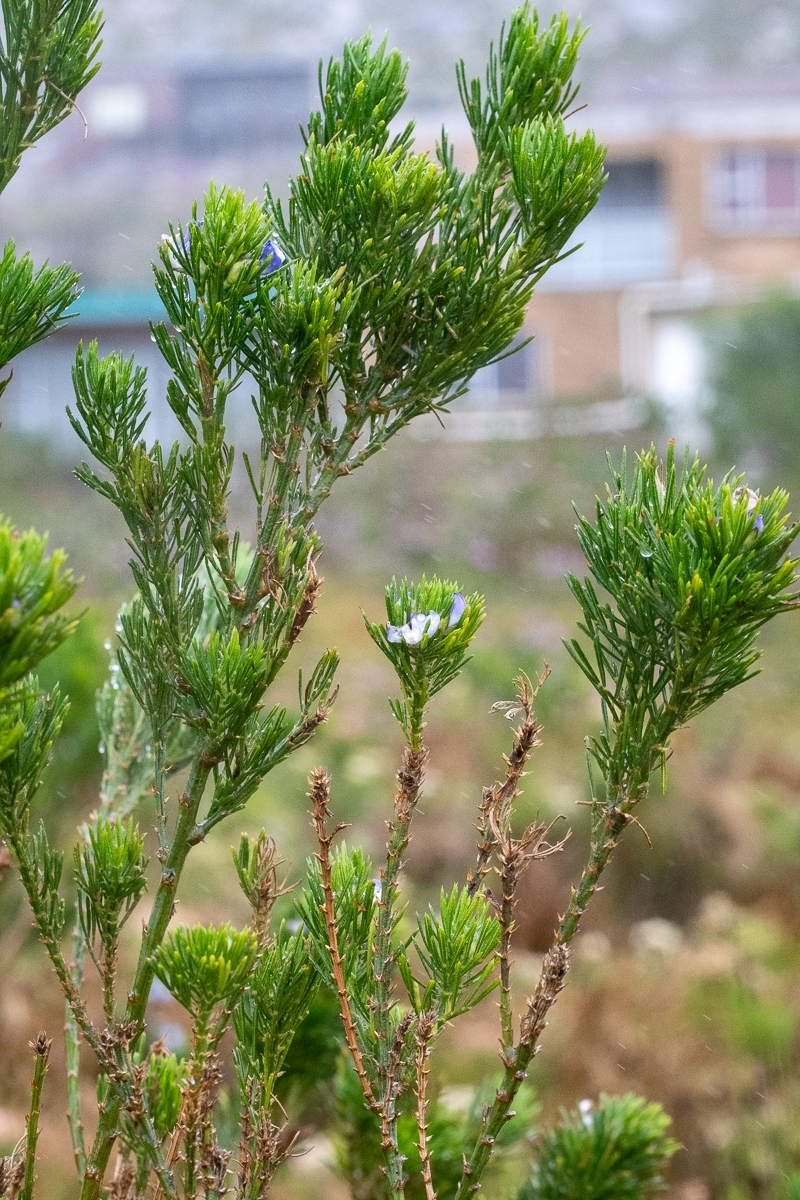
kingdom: Plantae
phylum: Tracheophyta
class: Magnoliopsida
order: Fabales
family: Fabaceae
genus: Psoralea
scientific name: Psoralea pinnata
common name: African scurfpea
